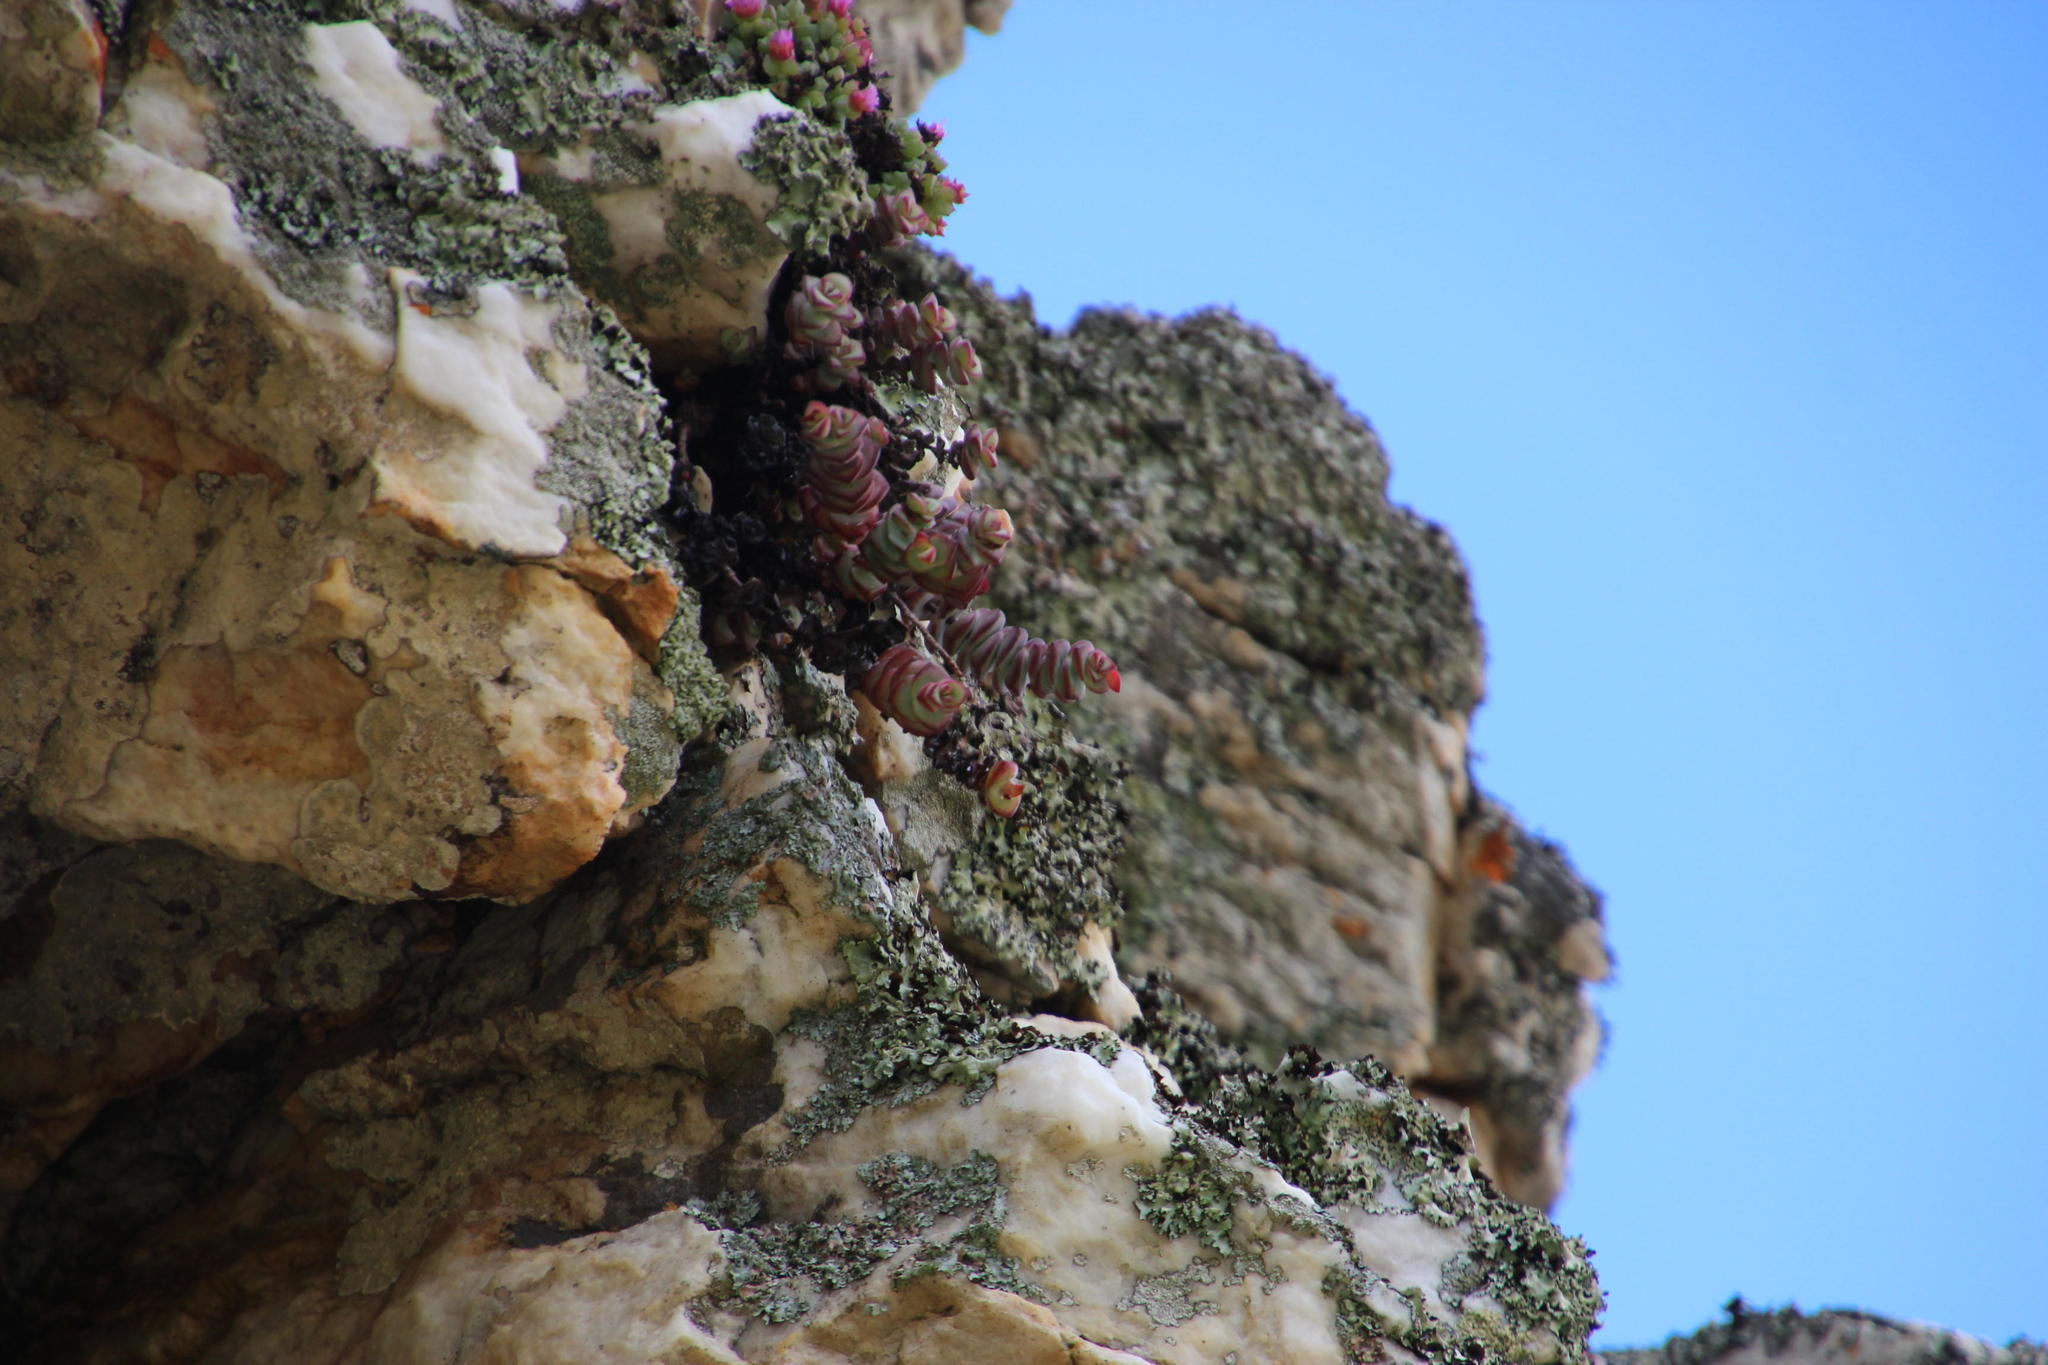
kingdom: Plantae
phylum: Tracheophyta
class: Magnoliopsida
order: Saxifragales
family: Crassulaceae
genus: Crassula
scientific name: Crassula rupestris
